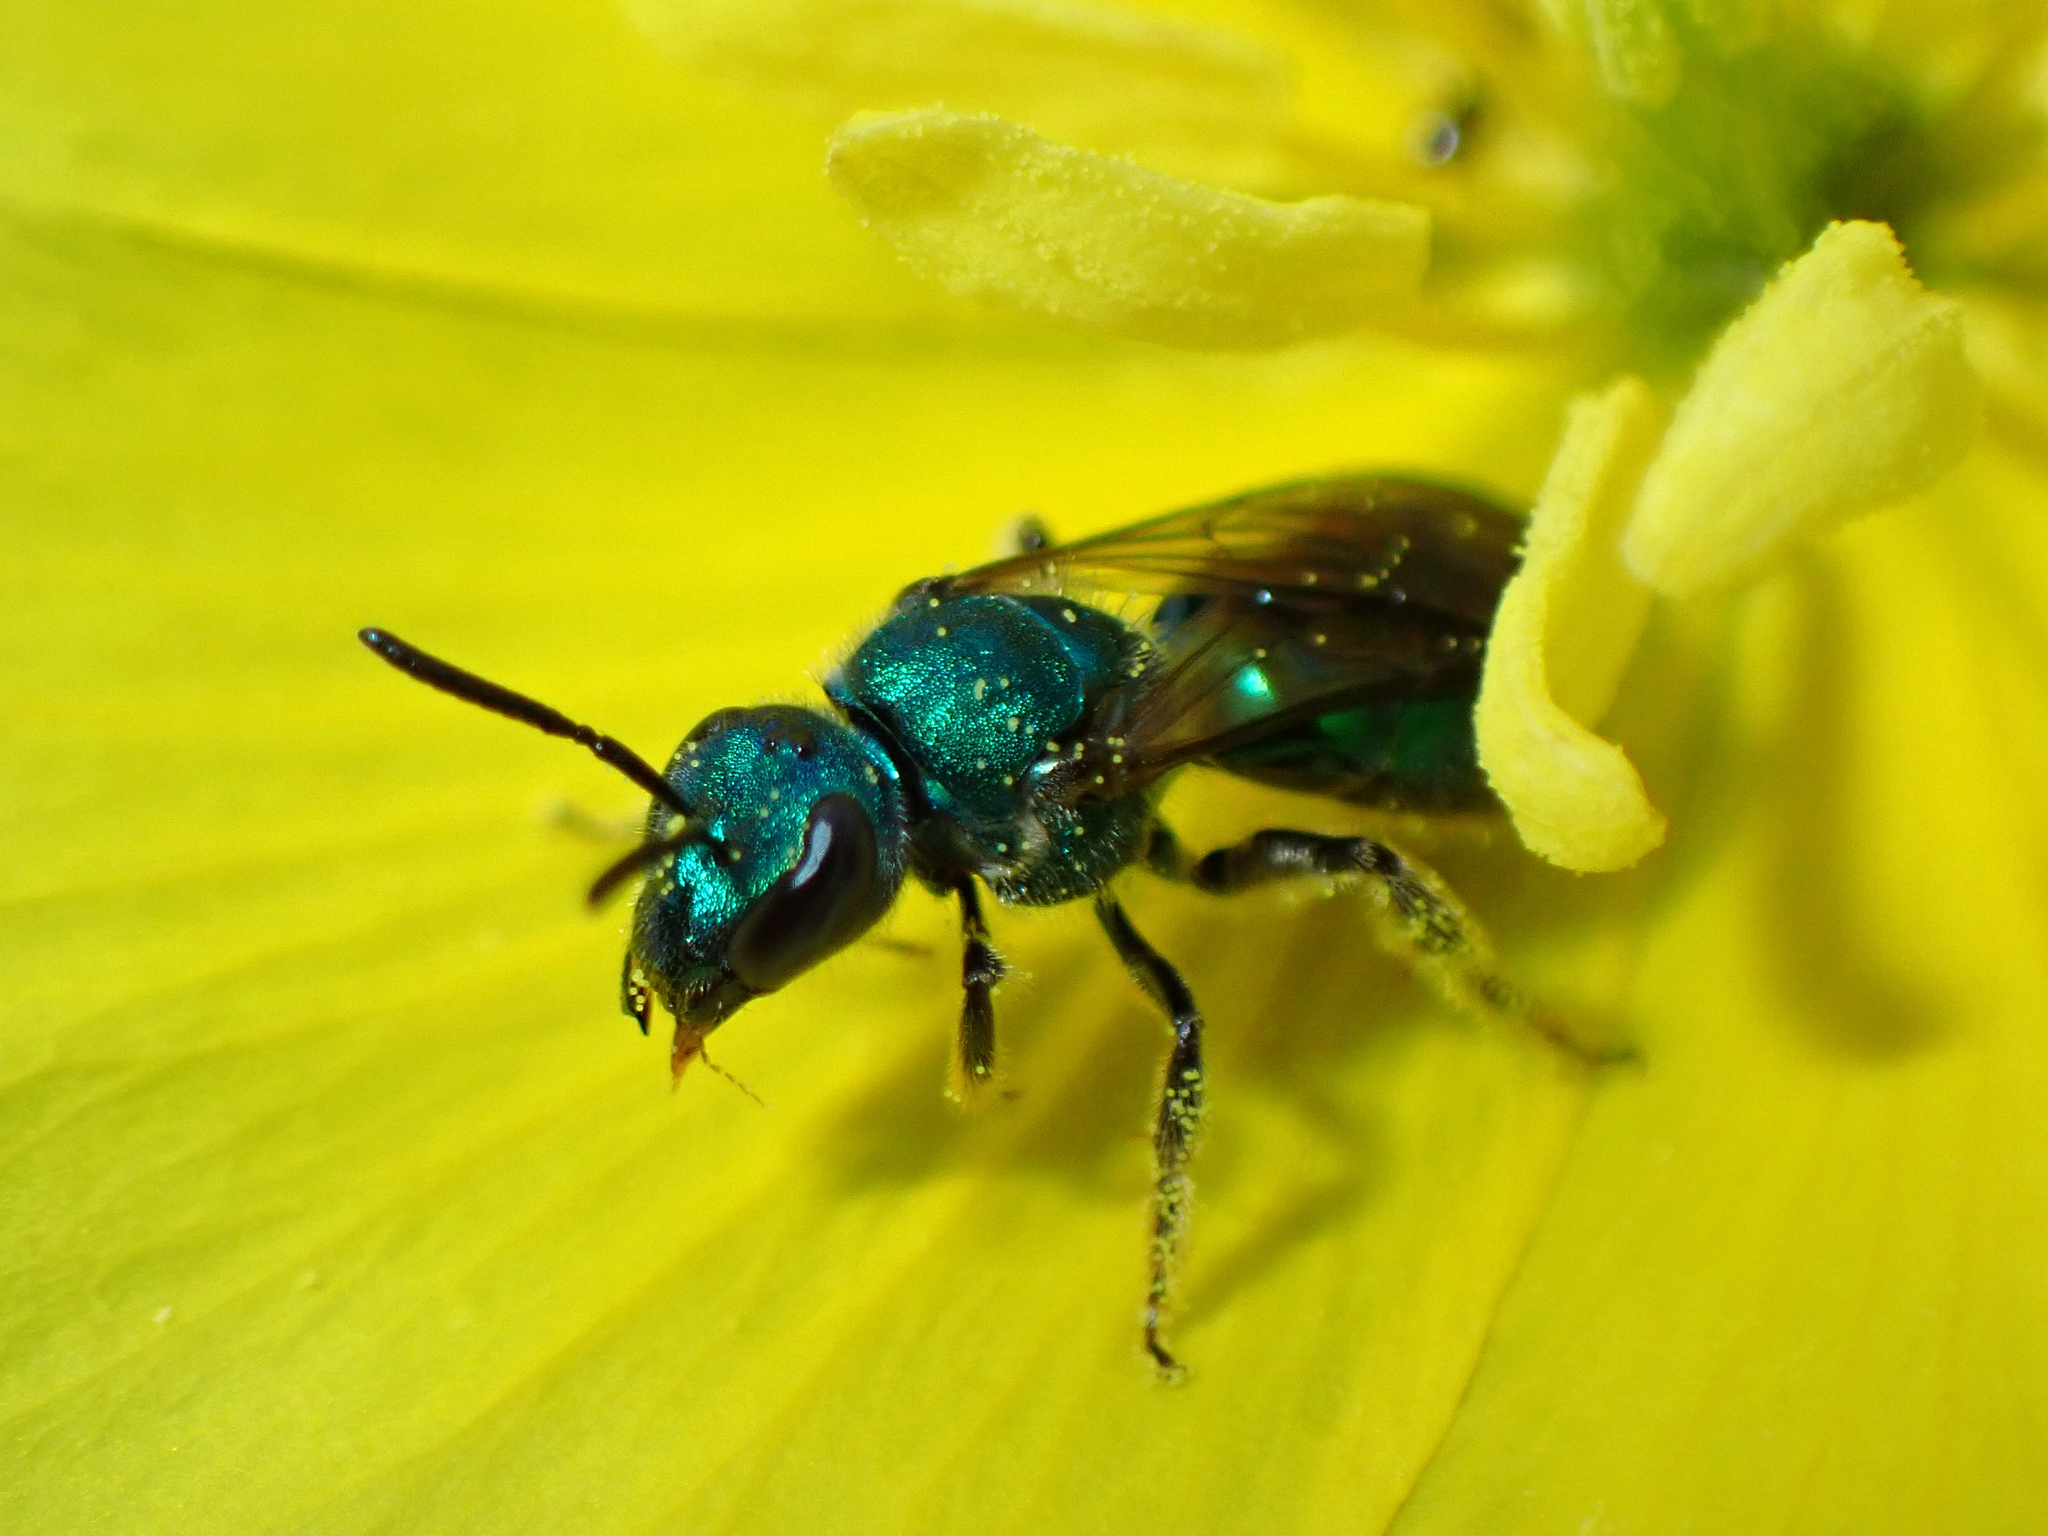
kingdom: Animalia
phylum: Arthropoda
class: Insecta
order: Hymenoptera
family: Halictidae
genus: Augochlora
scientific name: Augochlora pura
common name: Pure green sweat bee
